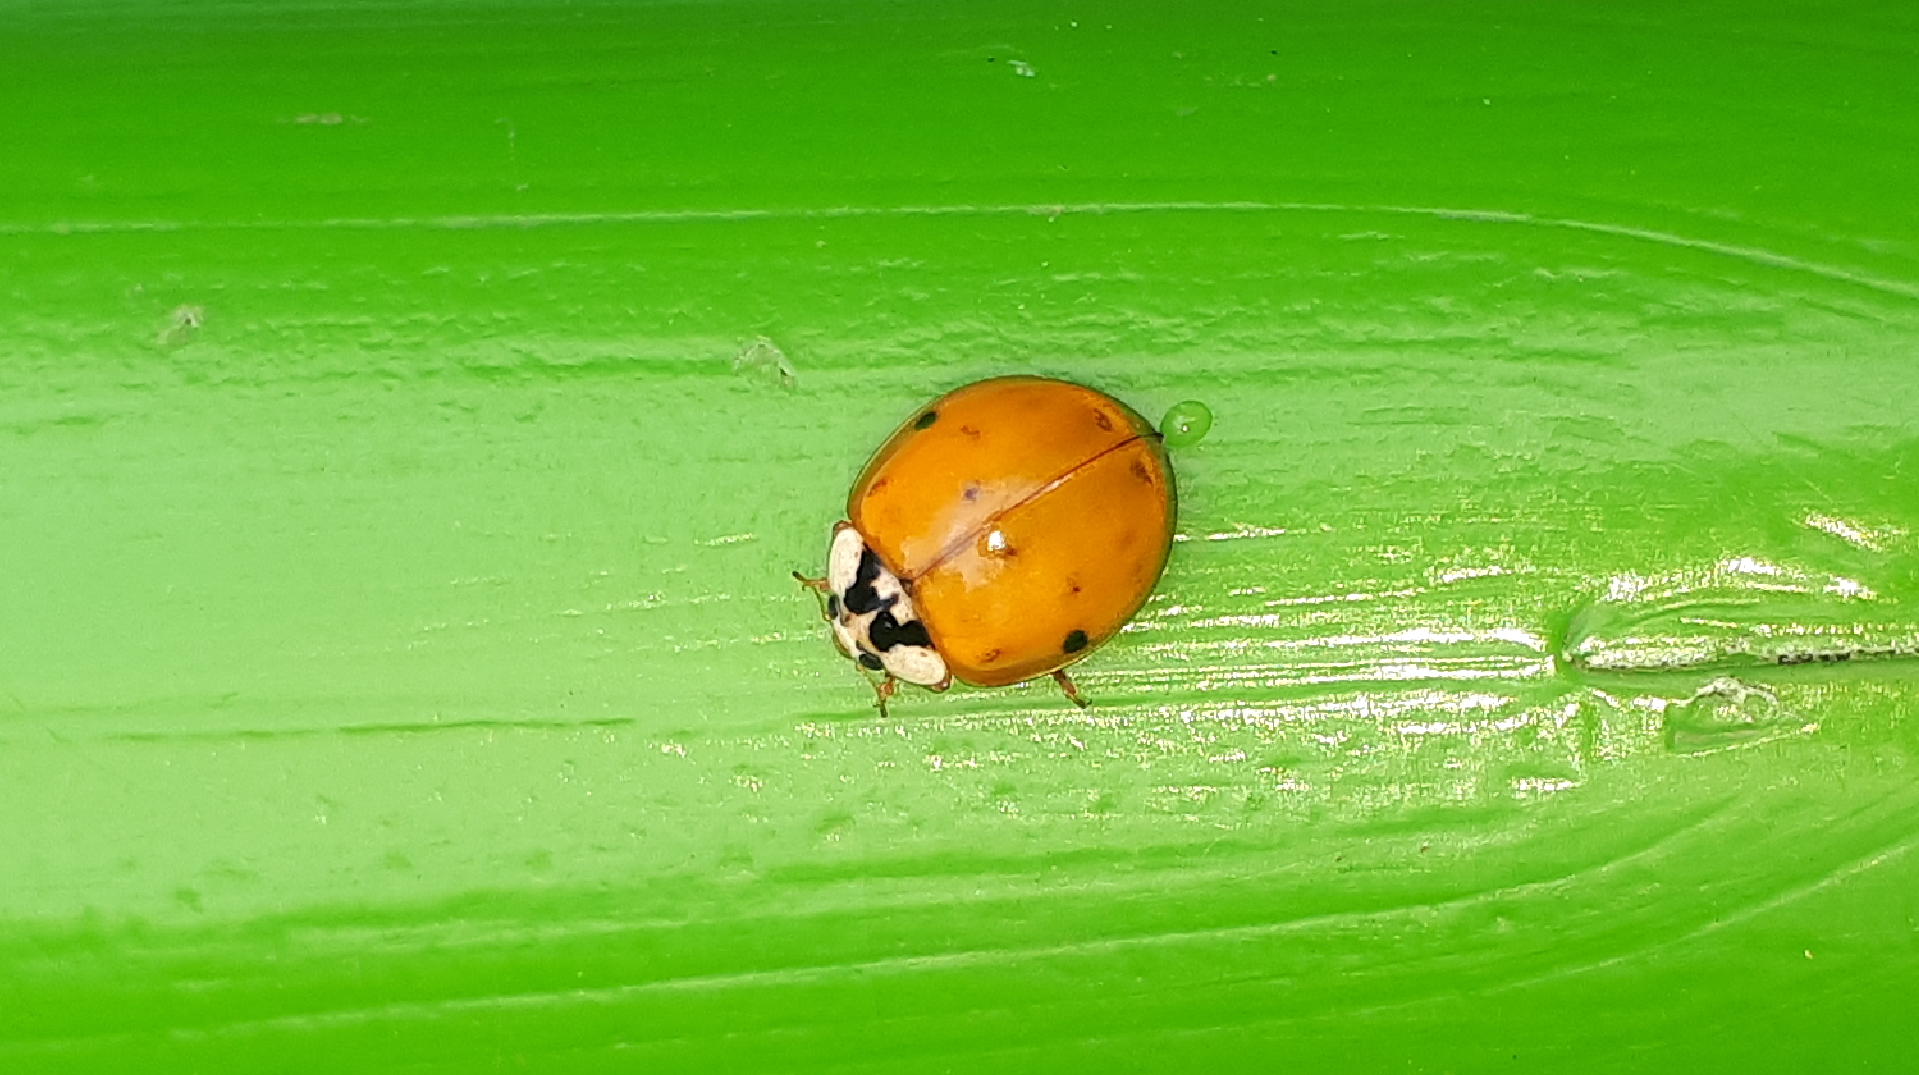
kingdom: Animalia
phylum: Arthropoda
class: Insecta
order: Coleoptera
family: Coccinellidae
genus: Harmonia
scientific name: Harmonia axyridis
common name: Harlequin ladybird
